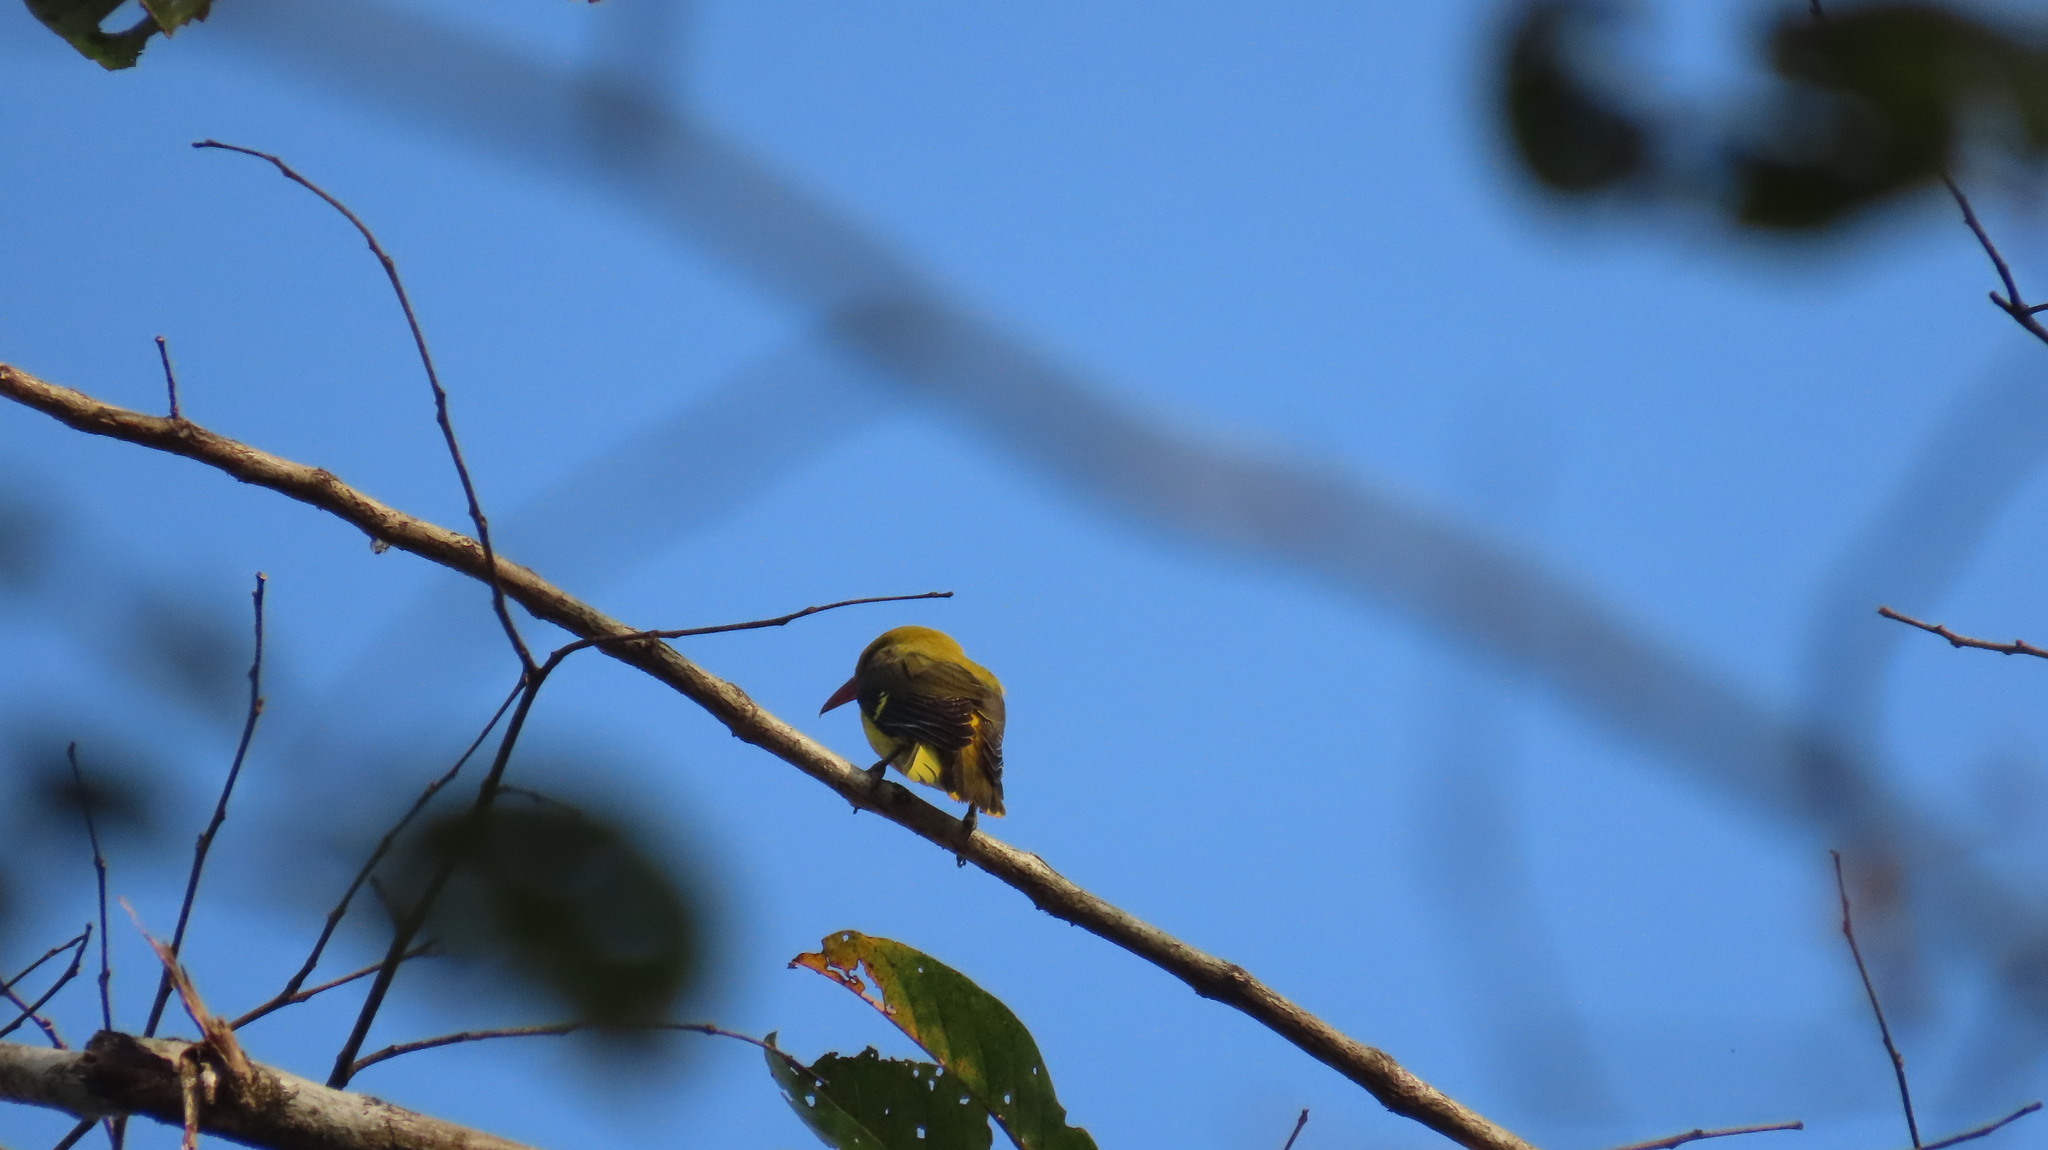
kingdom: Animalia
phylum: Chordata
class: Aves
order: Passeriformes
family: Oriolidae
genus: Oriolus
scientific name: Oriolus kundoo
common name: Indian golden oriole
